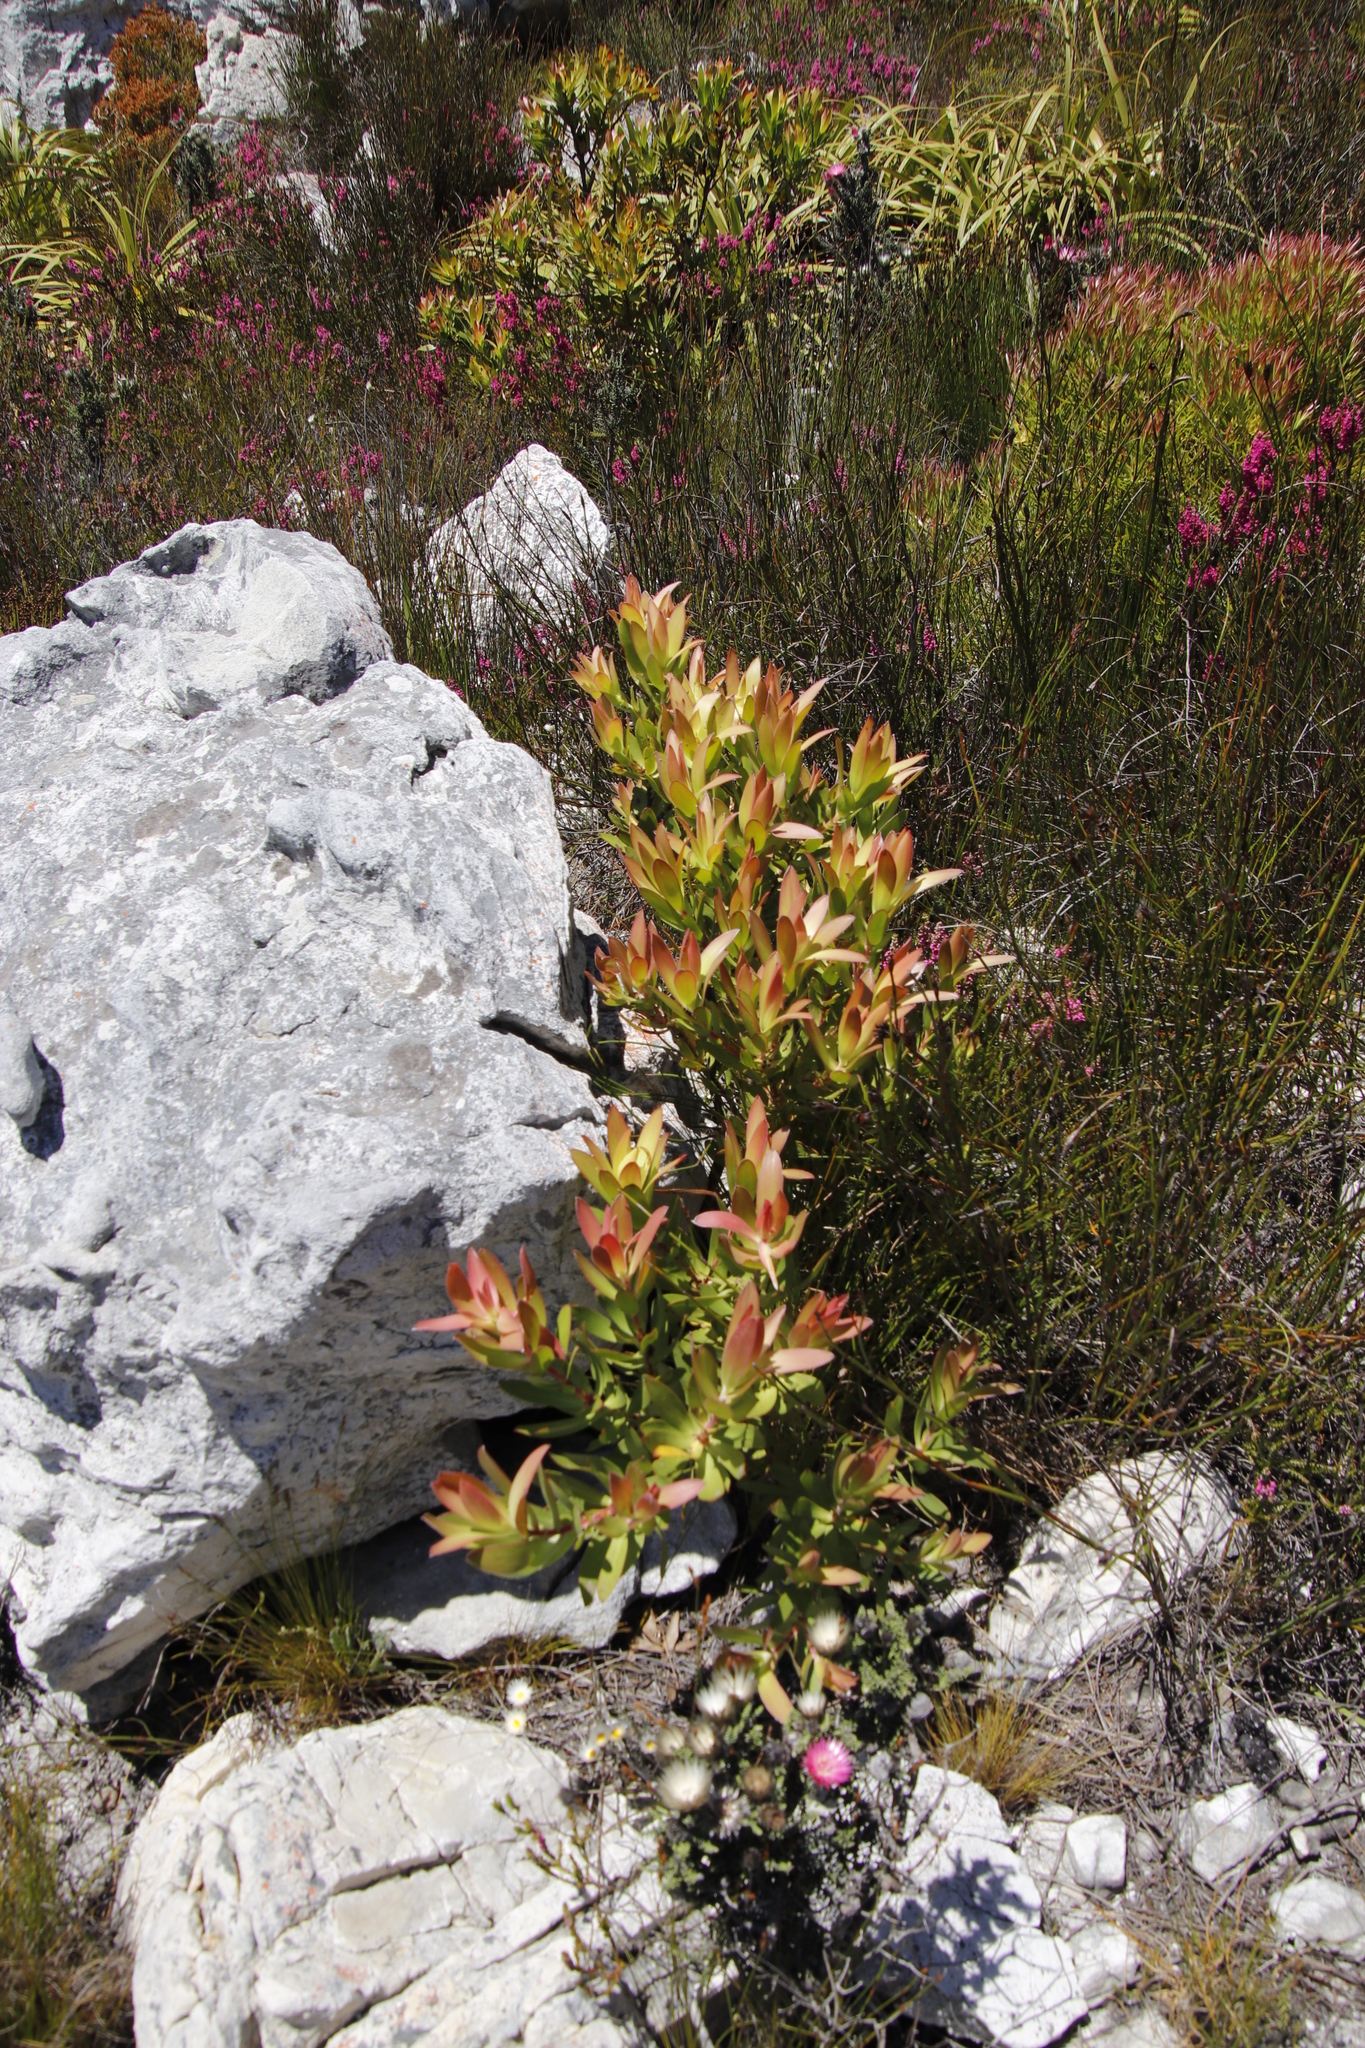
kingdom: Plantae
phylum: Tracheophyta
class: Magnoliopsida
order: Proteales
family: Proteaceae
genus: Leucadendron
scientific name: Leucadendron gandogeri
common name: Broad-leaf conebush
